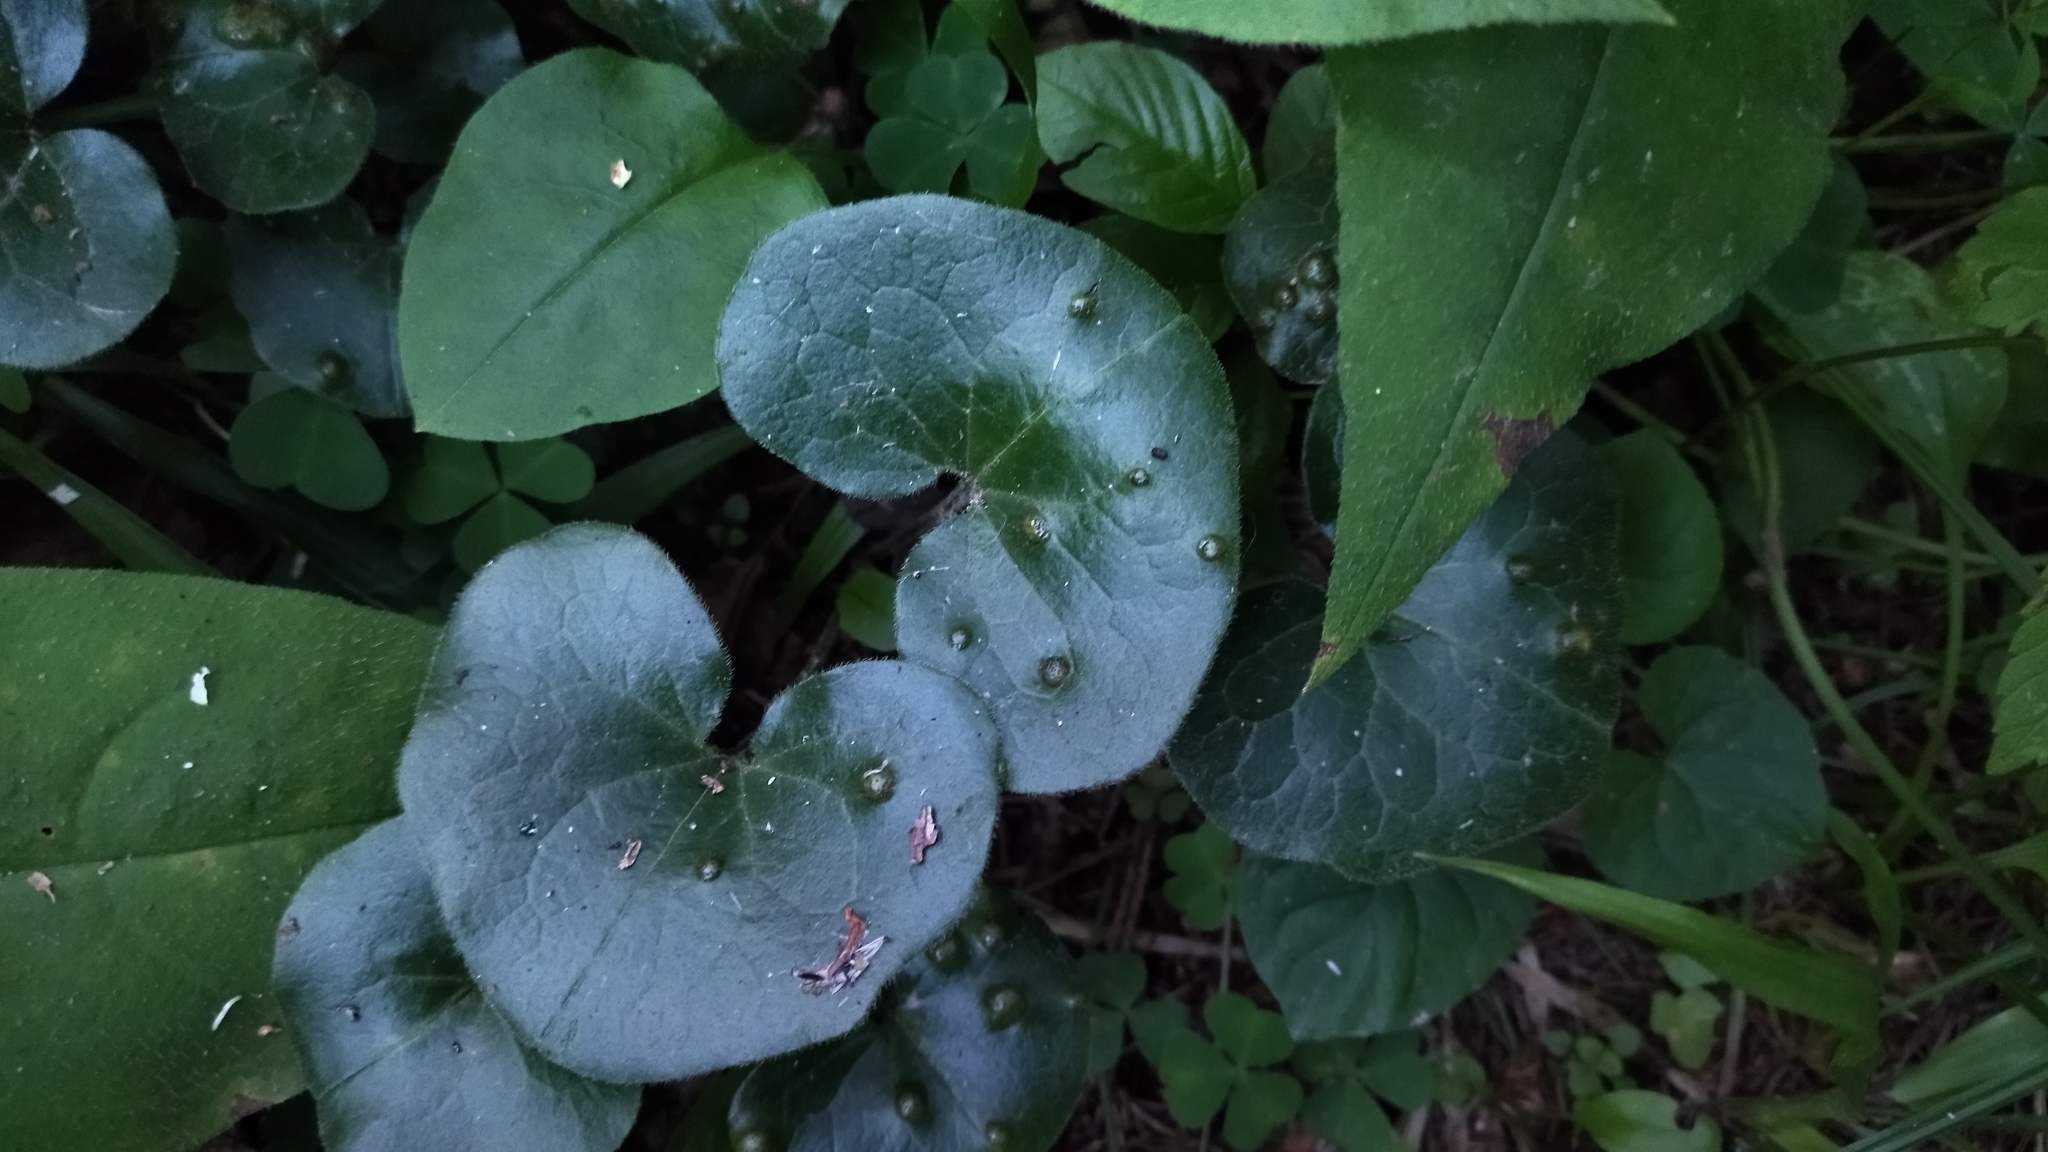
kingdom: Plantae
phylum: Tracheophyta
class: Magnoliopsida
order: Piperales
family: Aristolochiaceae
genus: Asarum
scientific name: Asarum europaeum
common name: Asarabacca
